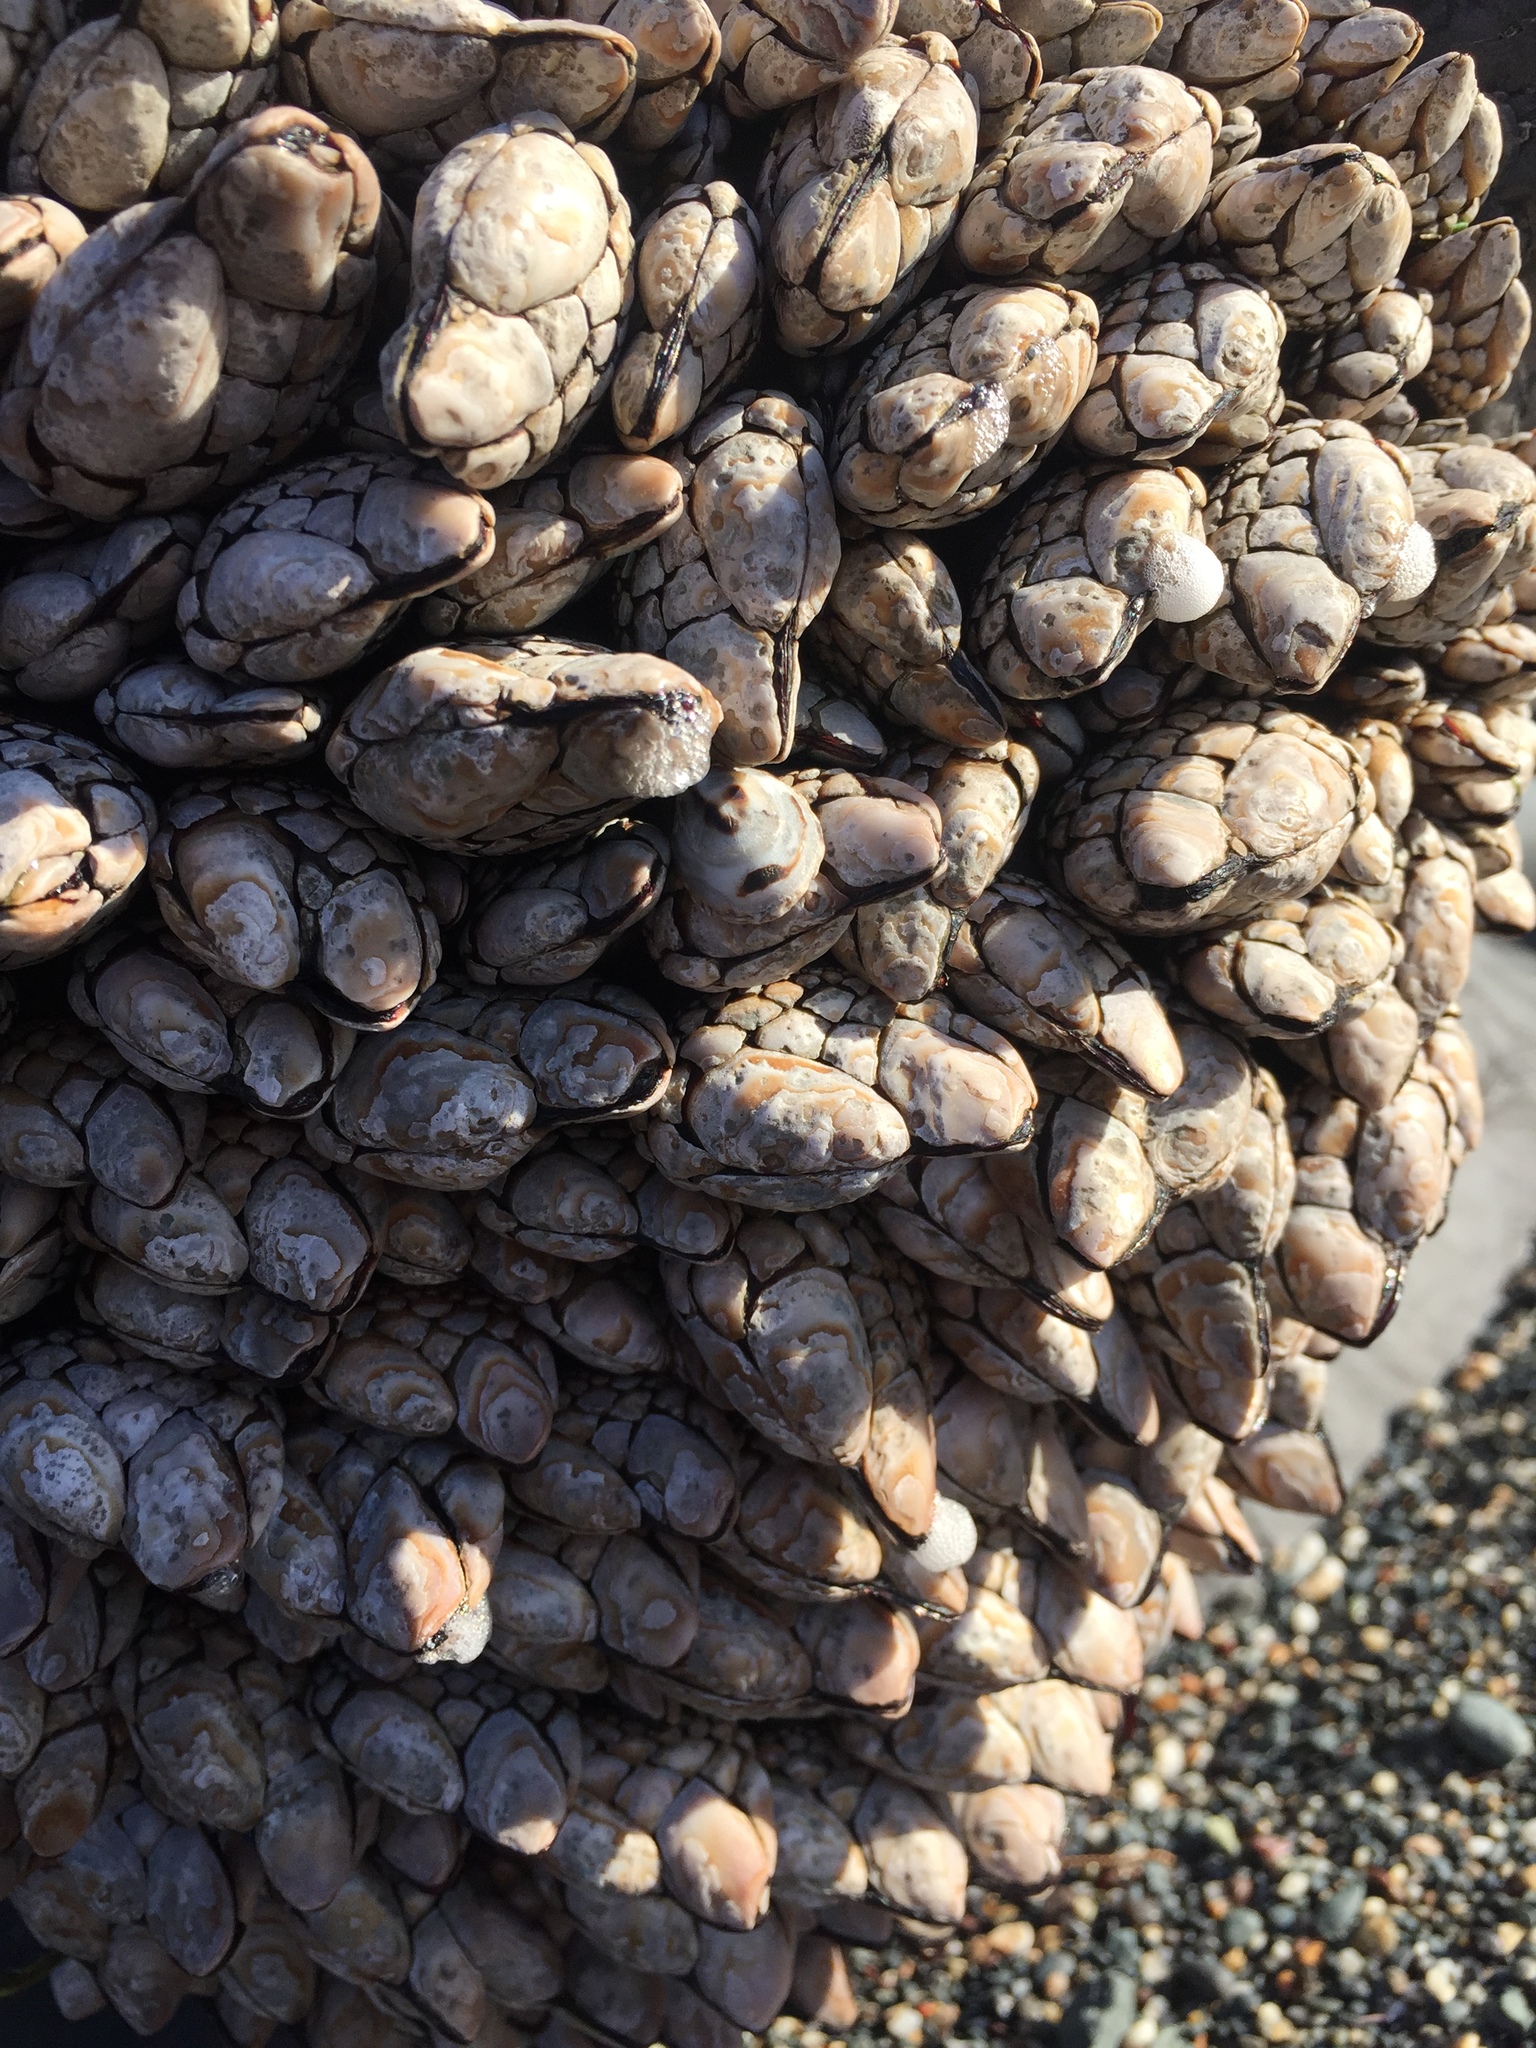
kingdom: Animalia
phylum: Arthropoda
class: Maxillopoda
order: Pedunculata
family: Pollicipedidae
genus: Pollicipes
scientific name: Pollicipes polymerus
